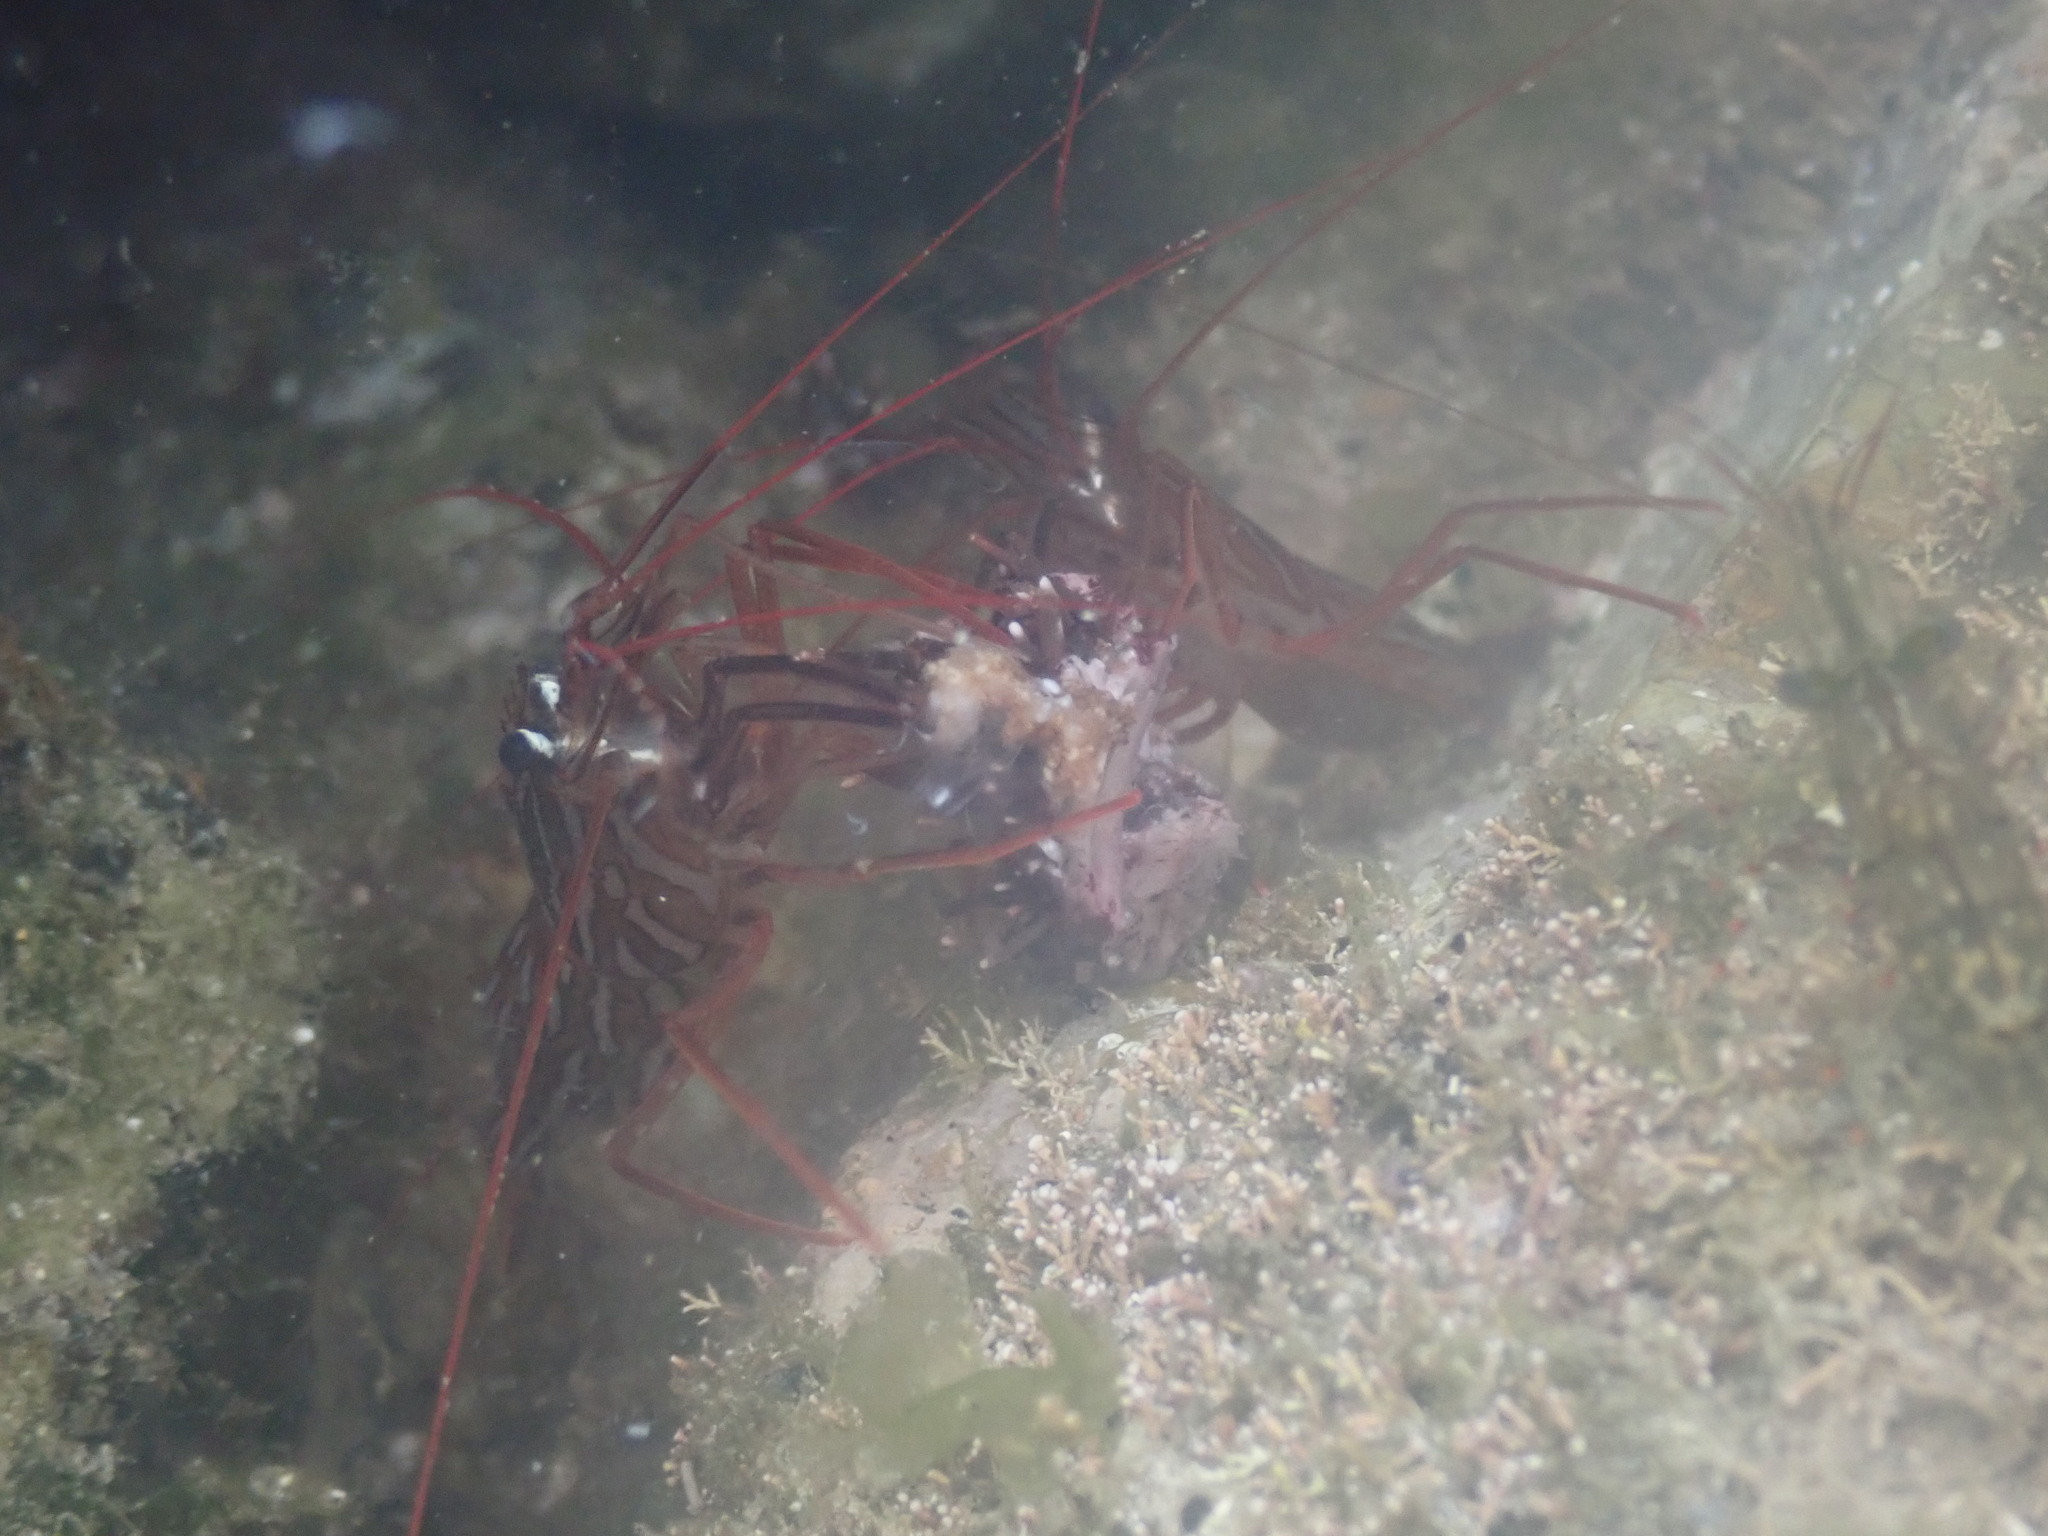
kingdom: Animalia
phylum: Arthropoda
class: Malacostraca
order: Decapoda
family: Lysmatidae
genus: Lysmata
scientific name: Lysmata californica
